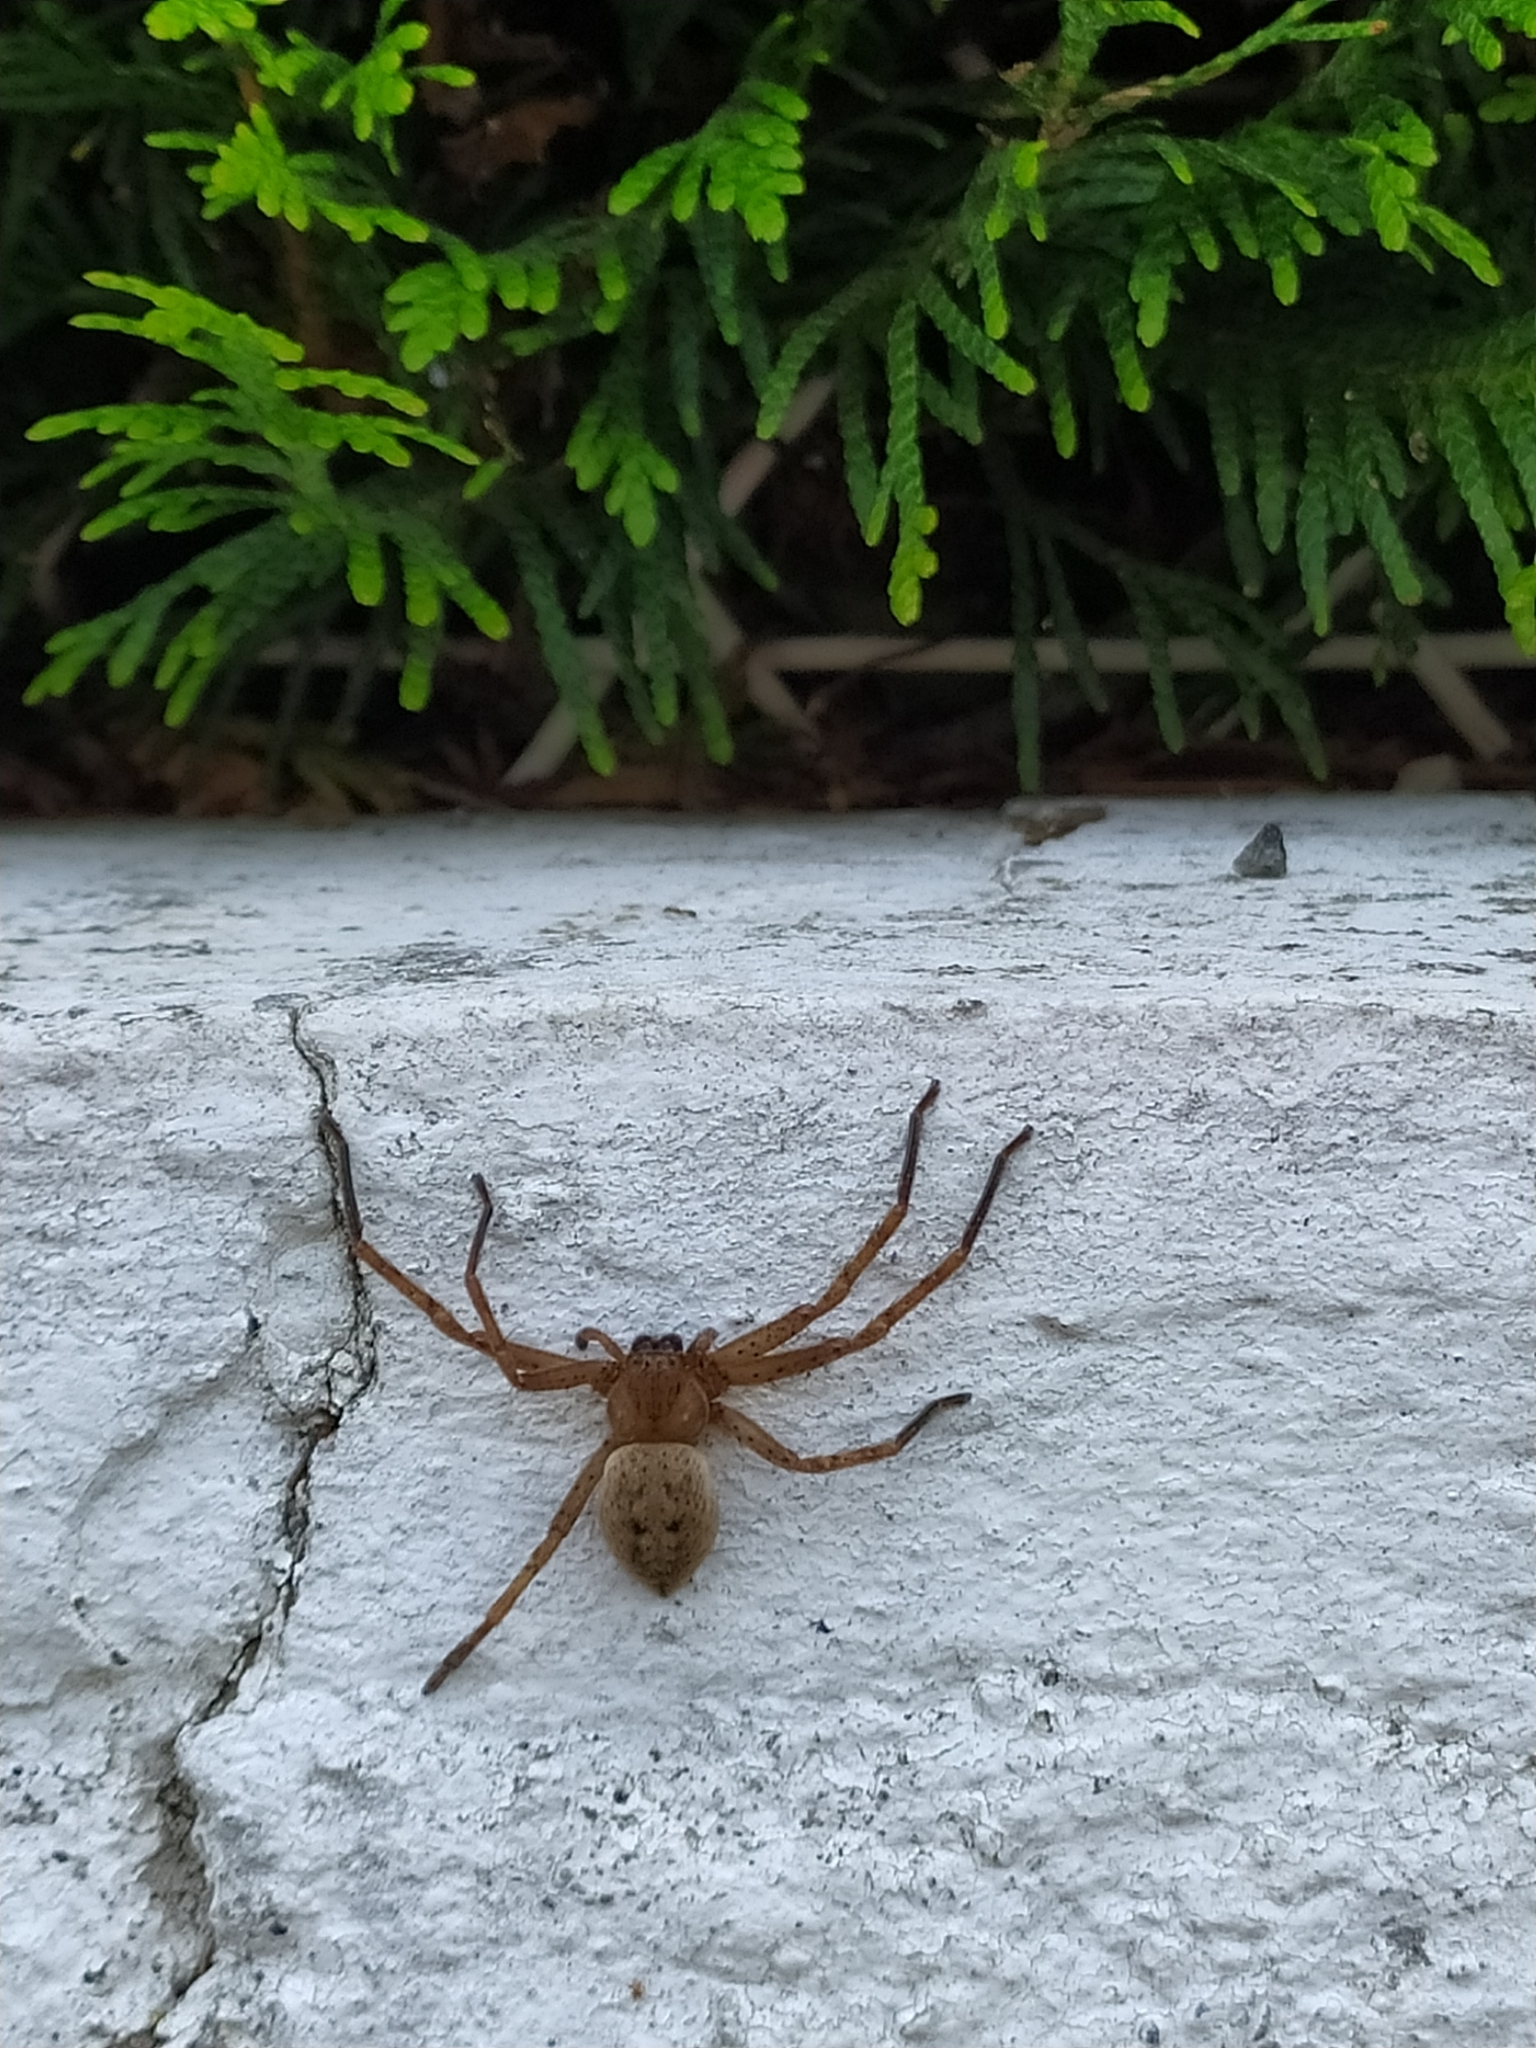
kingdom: Animalia
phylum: Arthropoda
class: Arachnida
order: Araneae
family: Sparassidae
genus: Olios
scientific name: Olios argelasius
